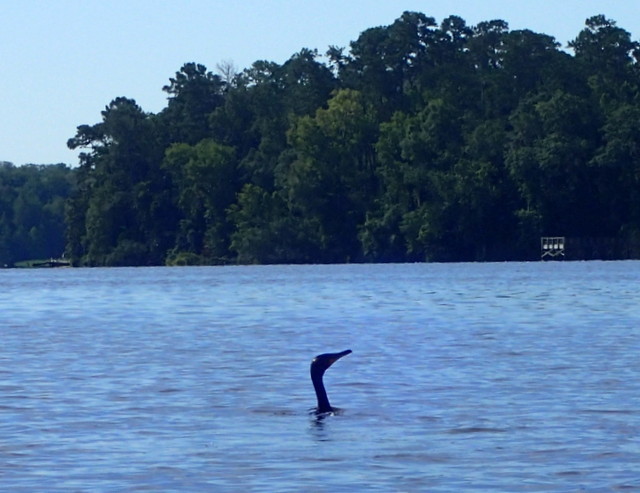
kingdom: Animalia
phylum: Chordata
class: Aves
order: Suliformes
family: Phalacrocoracidae
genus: Phalacrocorax
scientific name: Phalacrocorax auritus
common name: Double-crested cormorant
